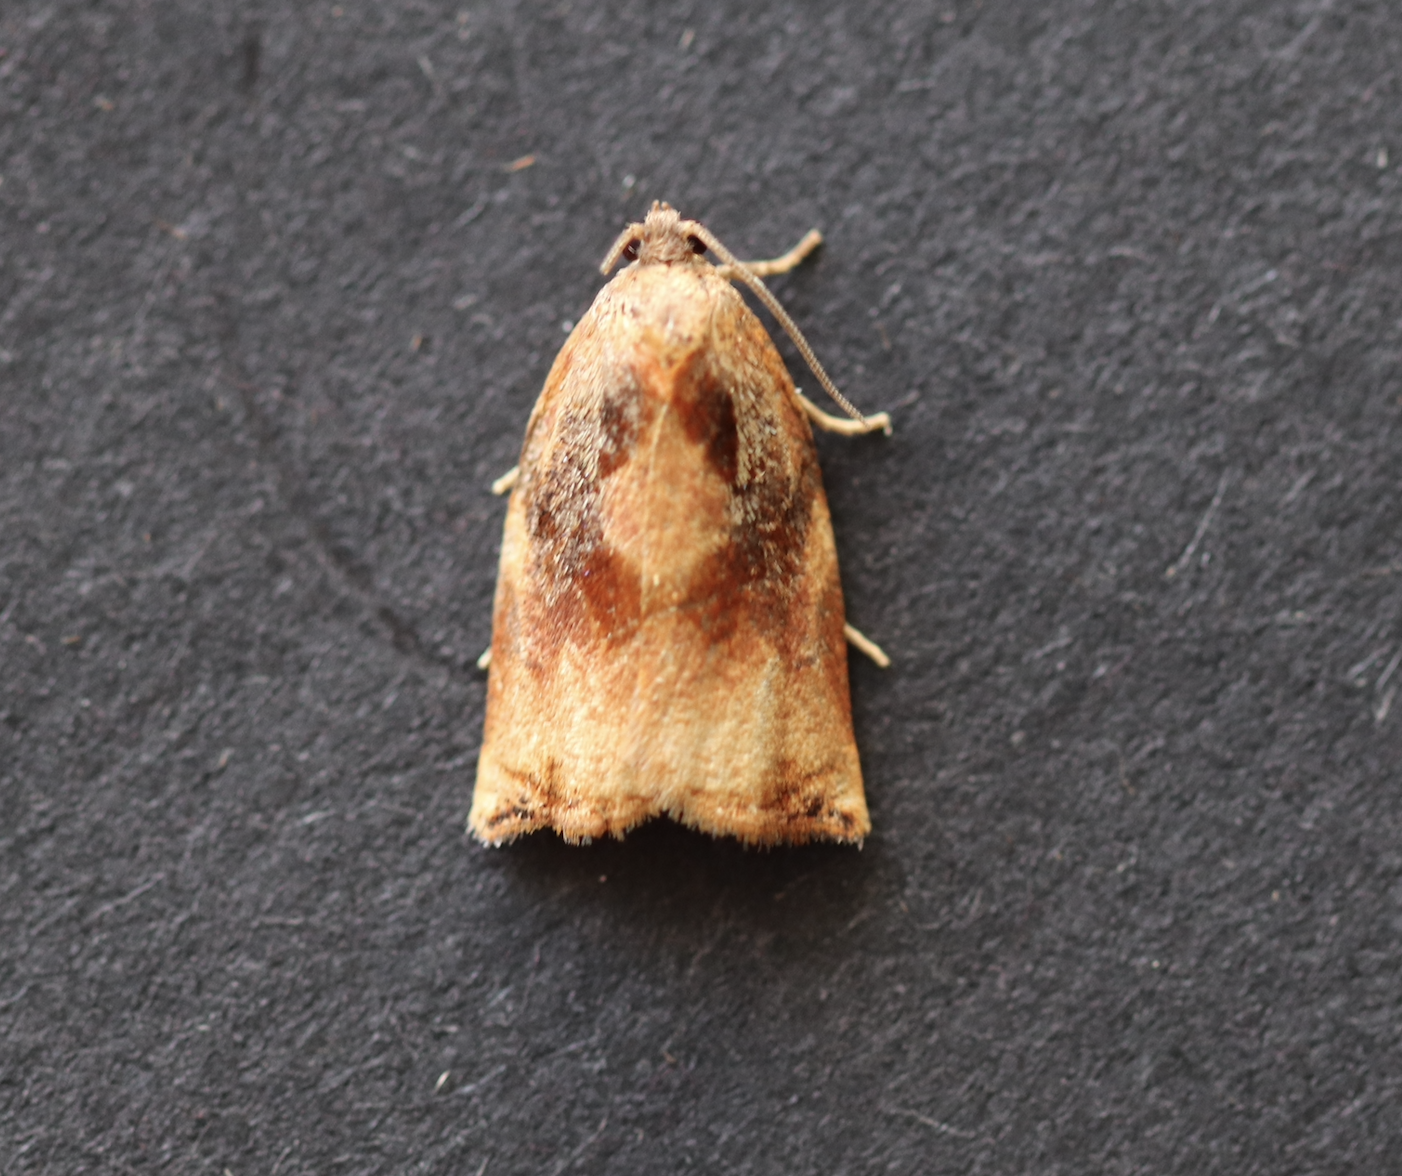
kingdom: Animalia
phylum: Arthropoda
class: Insecta
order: Lepidoptera
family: Tortricidae
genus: Archips
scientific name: Archips podana
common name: Large fruit-tree tortrix
